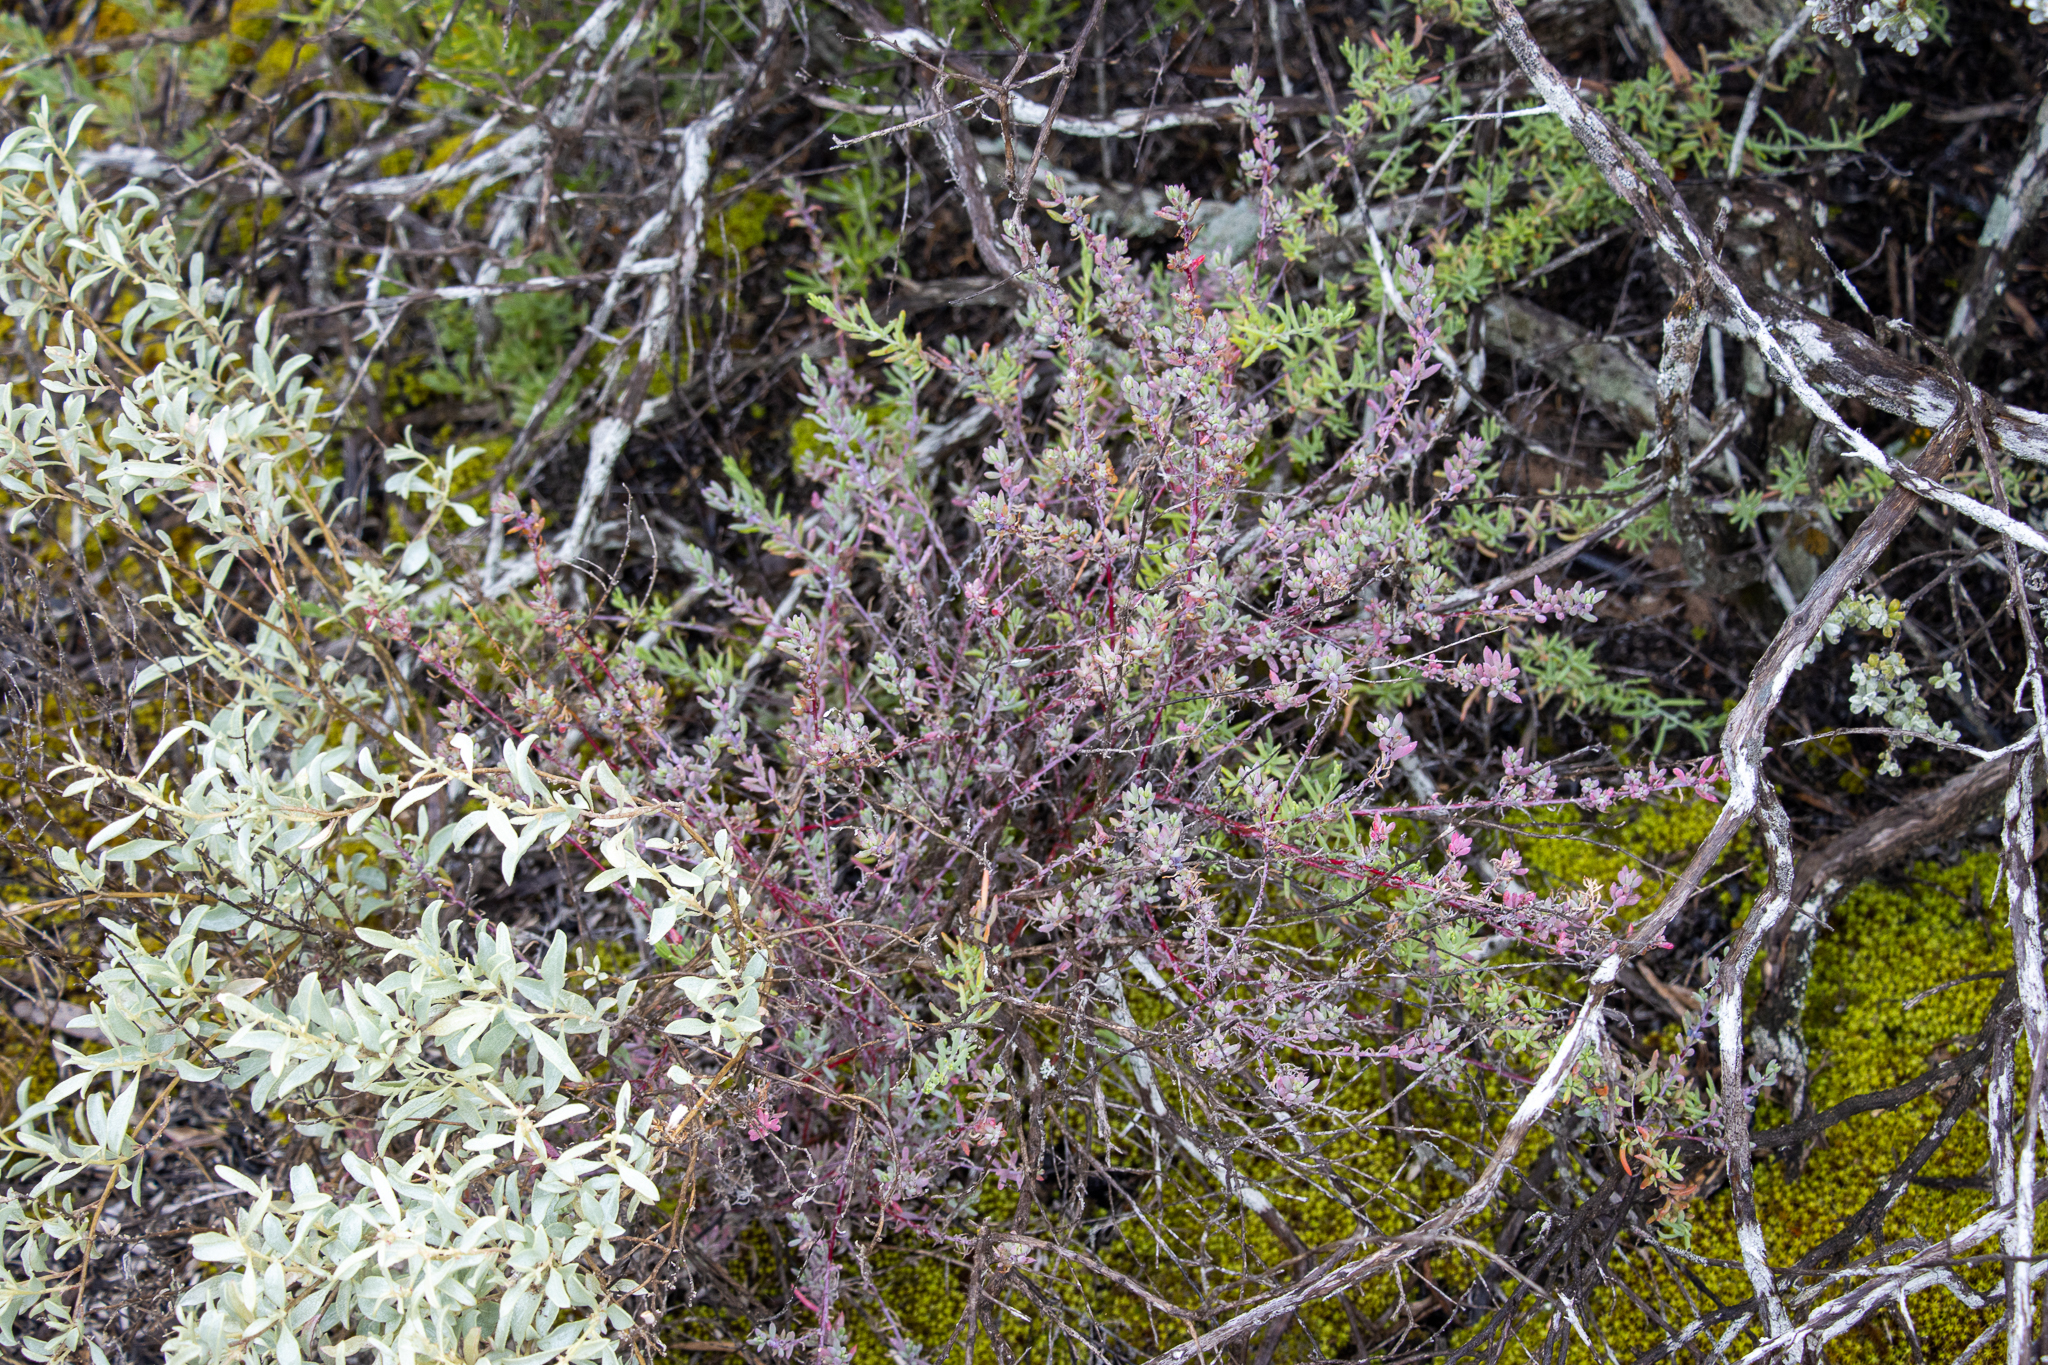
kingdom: Plantae
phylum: Tracheophyta
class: Magnoliopsida
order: Caryophyllales
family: Amaranthaceae
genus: Threlkeldia
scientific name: Threlkeldia diffusa
